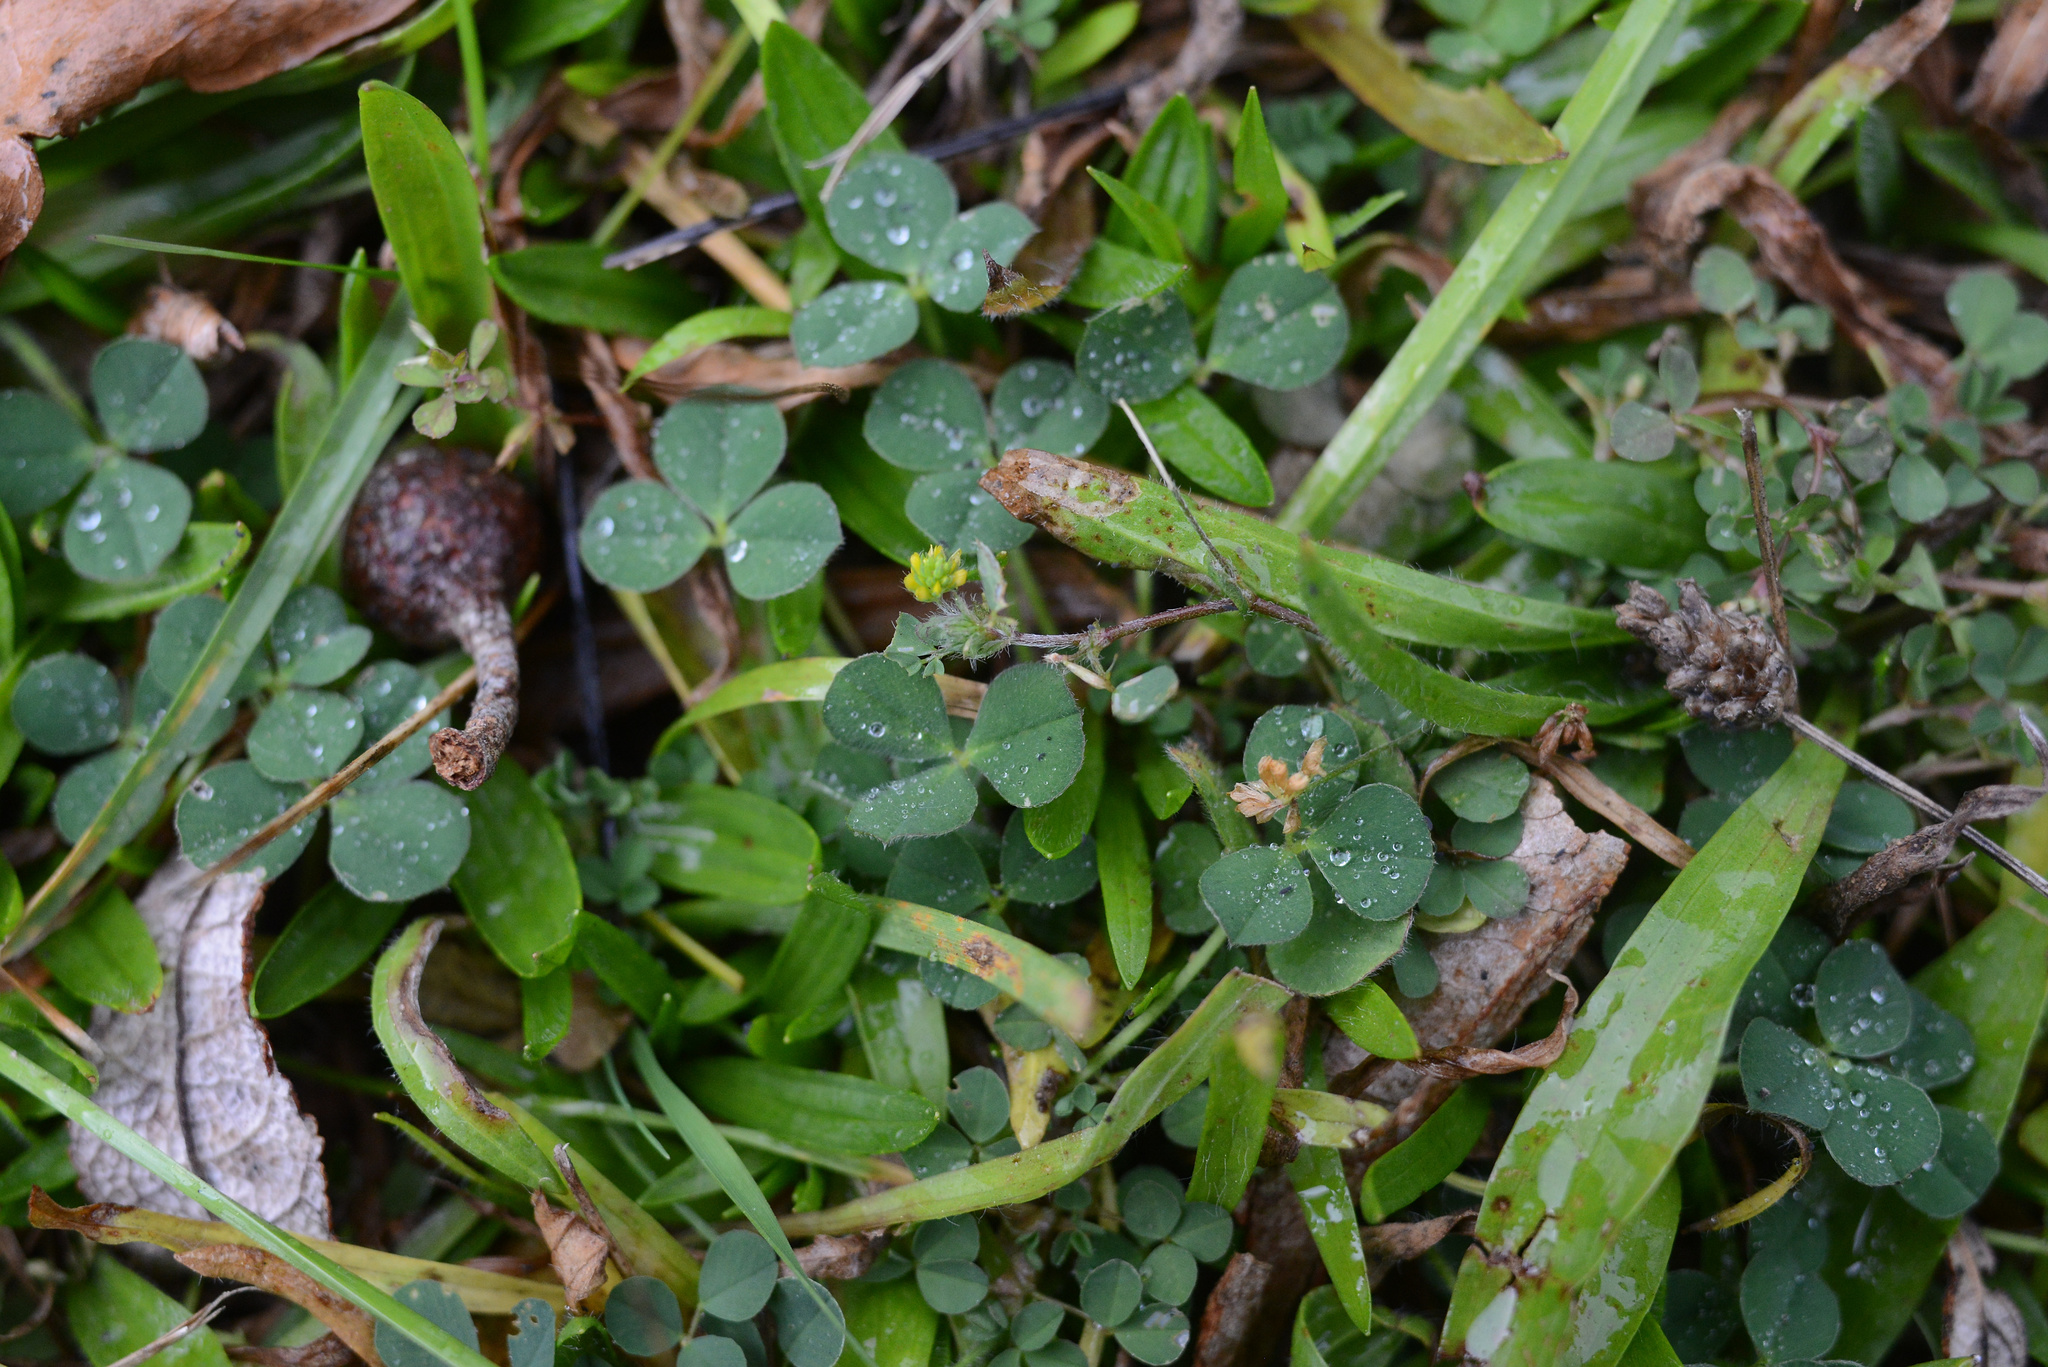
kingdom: Plantae
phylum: Tracheophyta
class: Magnoliopsida
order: Fabales
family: Fabaceae
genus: Trifolium
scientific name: Trifolium fragiferum
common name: Strawberry clover
